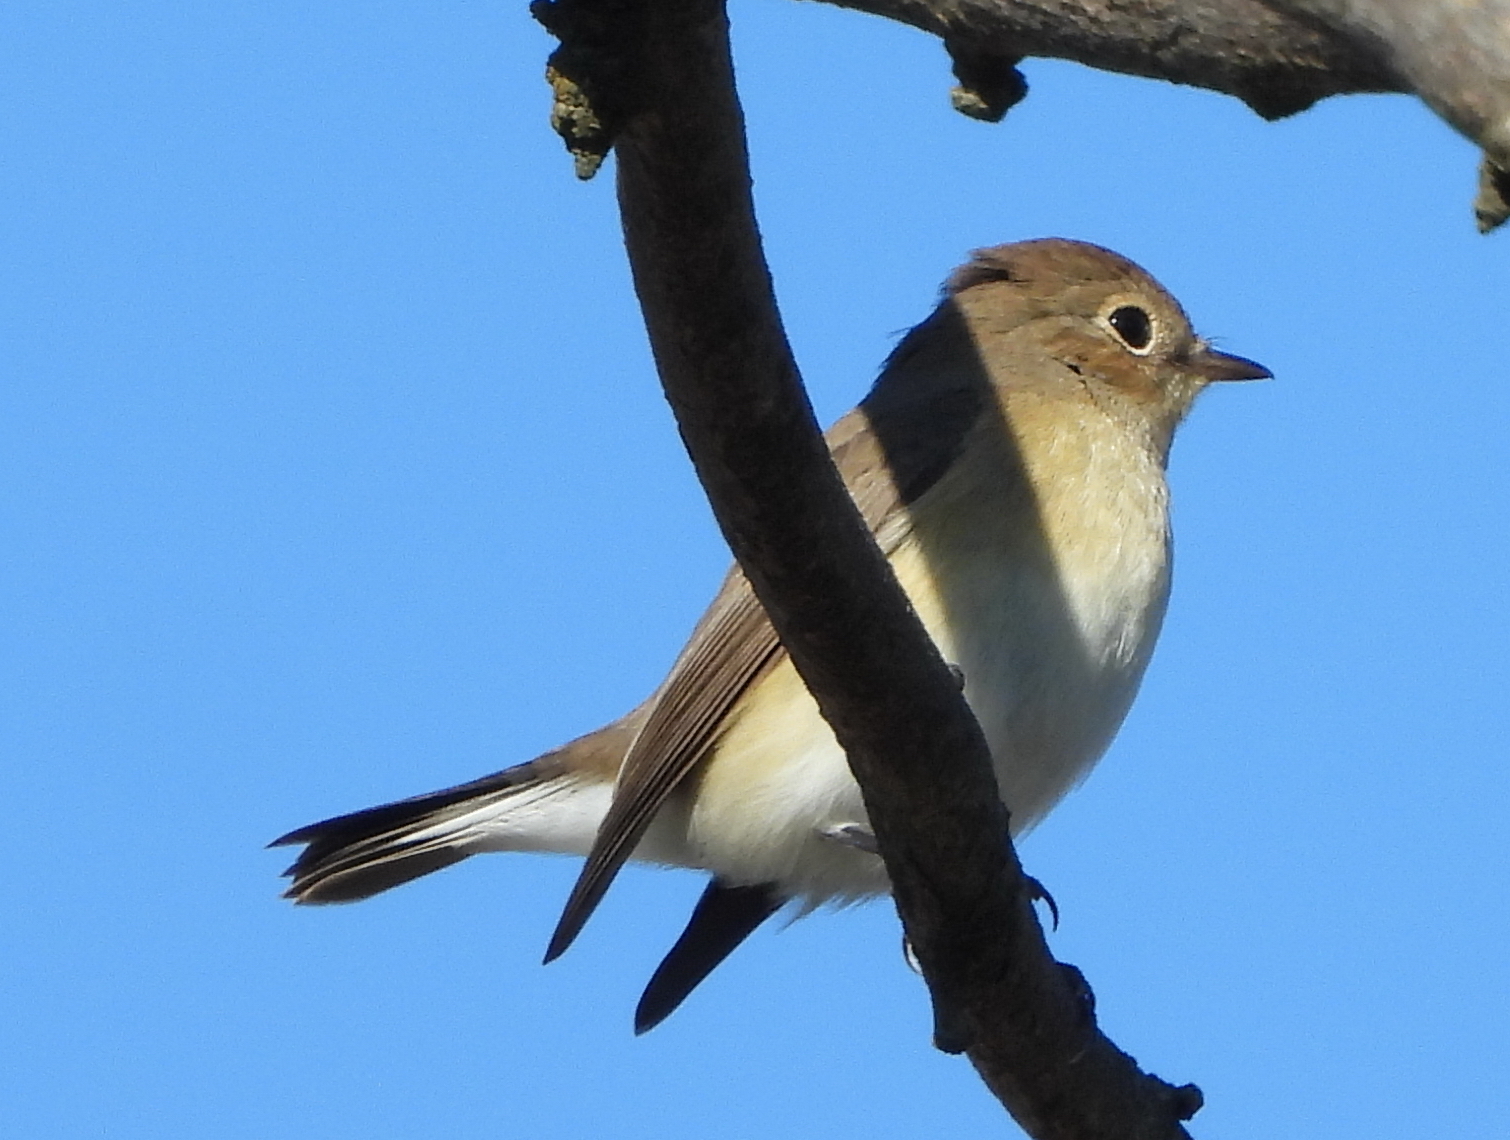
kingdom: Animalia
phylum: Chordata
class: Aves
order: Passeriformes
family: Muscicapidae
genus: Ficedula
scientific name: Ficedula parva
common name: Red-breasted flycatcher
